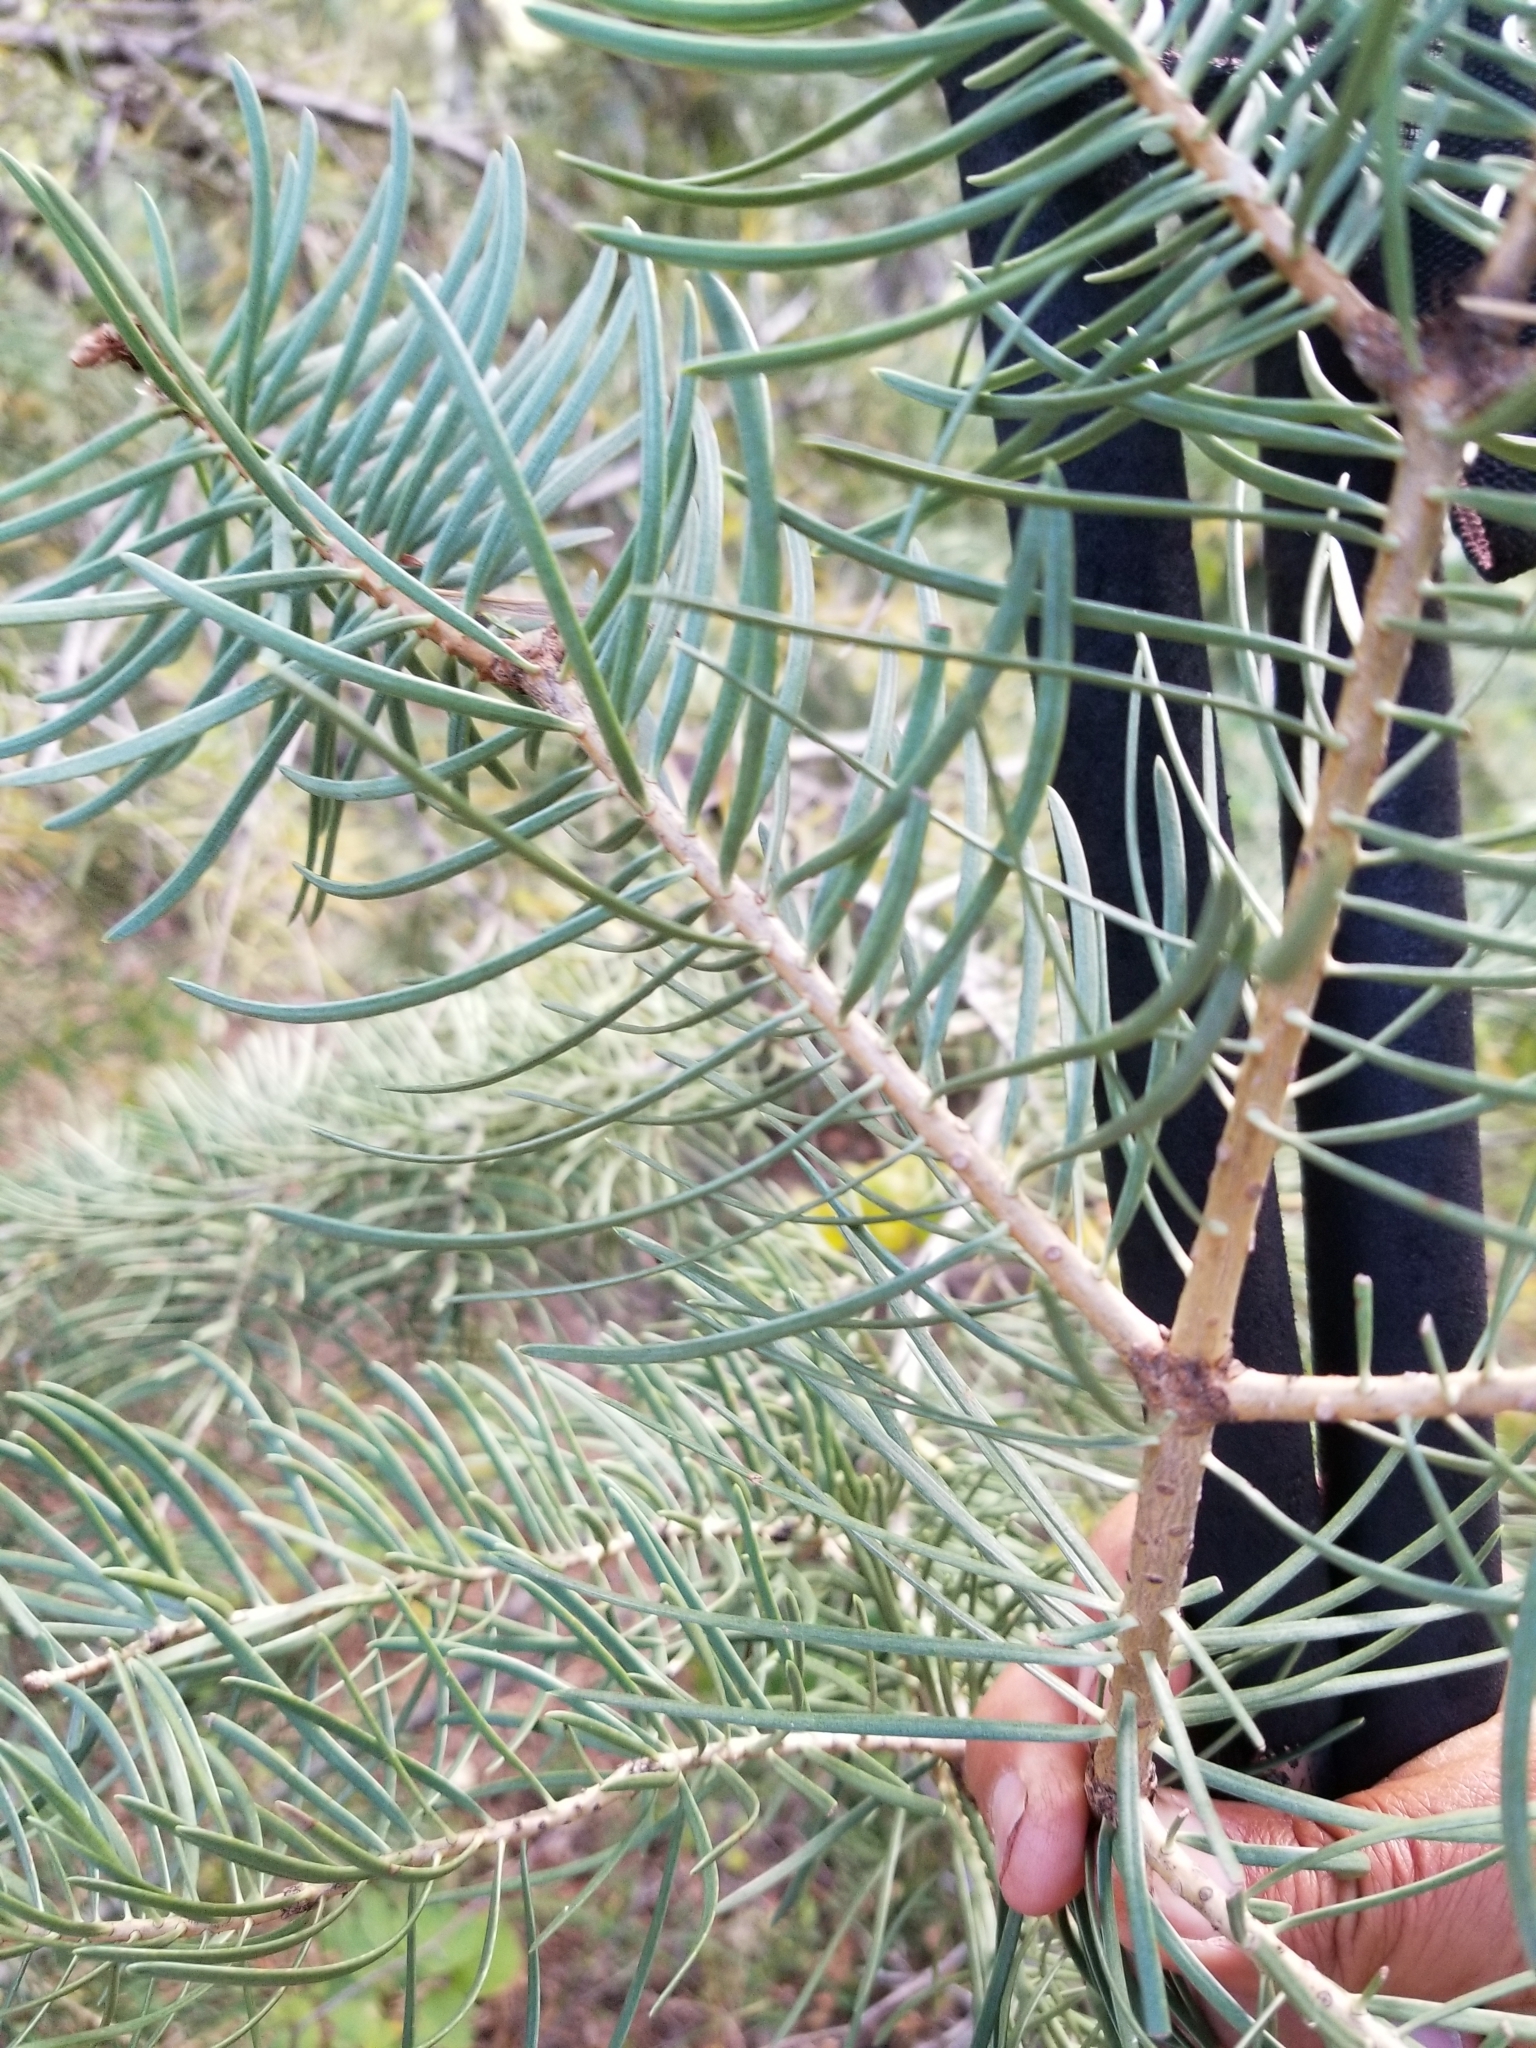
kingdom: Plantae
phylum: Tracheophyta
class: Pinopsida
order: Pinales
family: Pinaceae
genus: Abies
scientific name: Abies concolor
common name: Colorado fir
